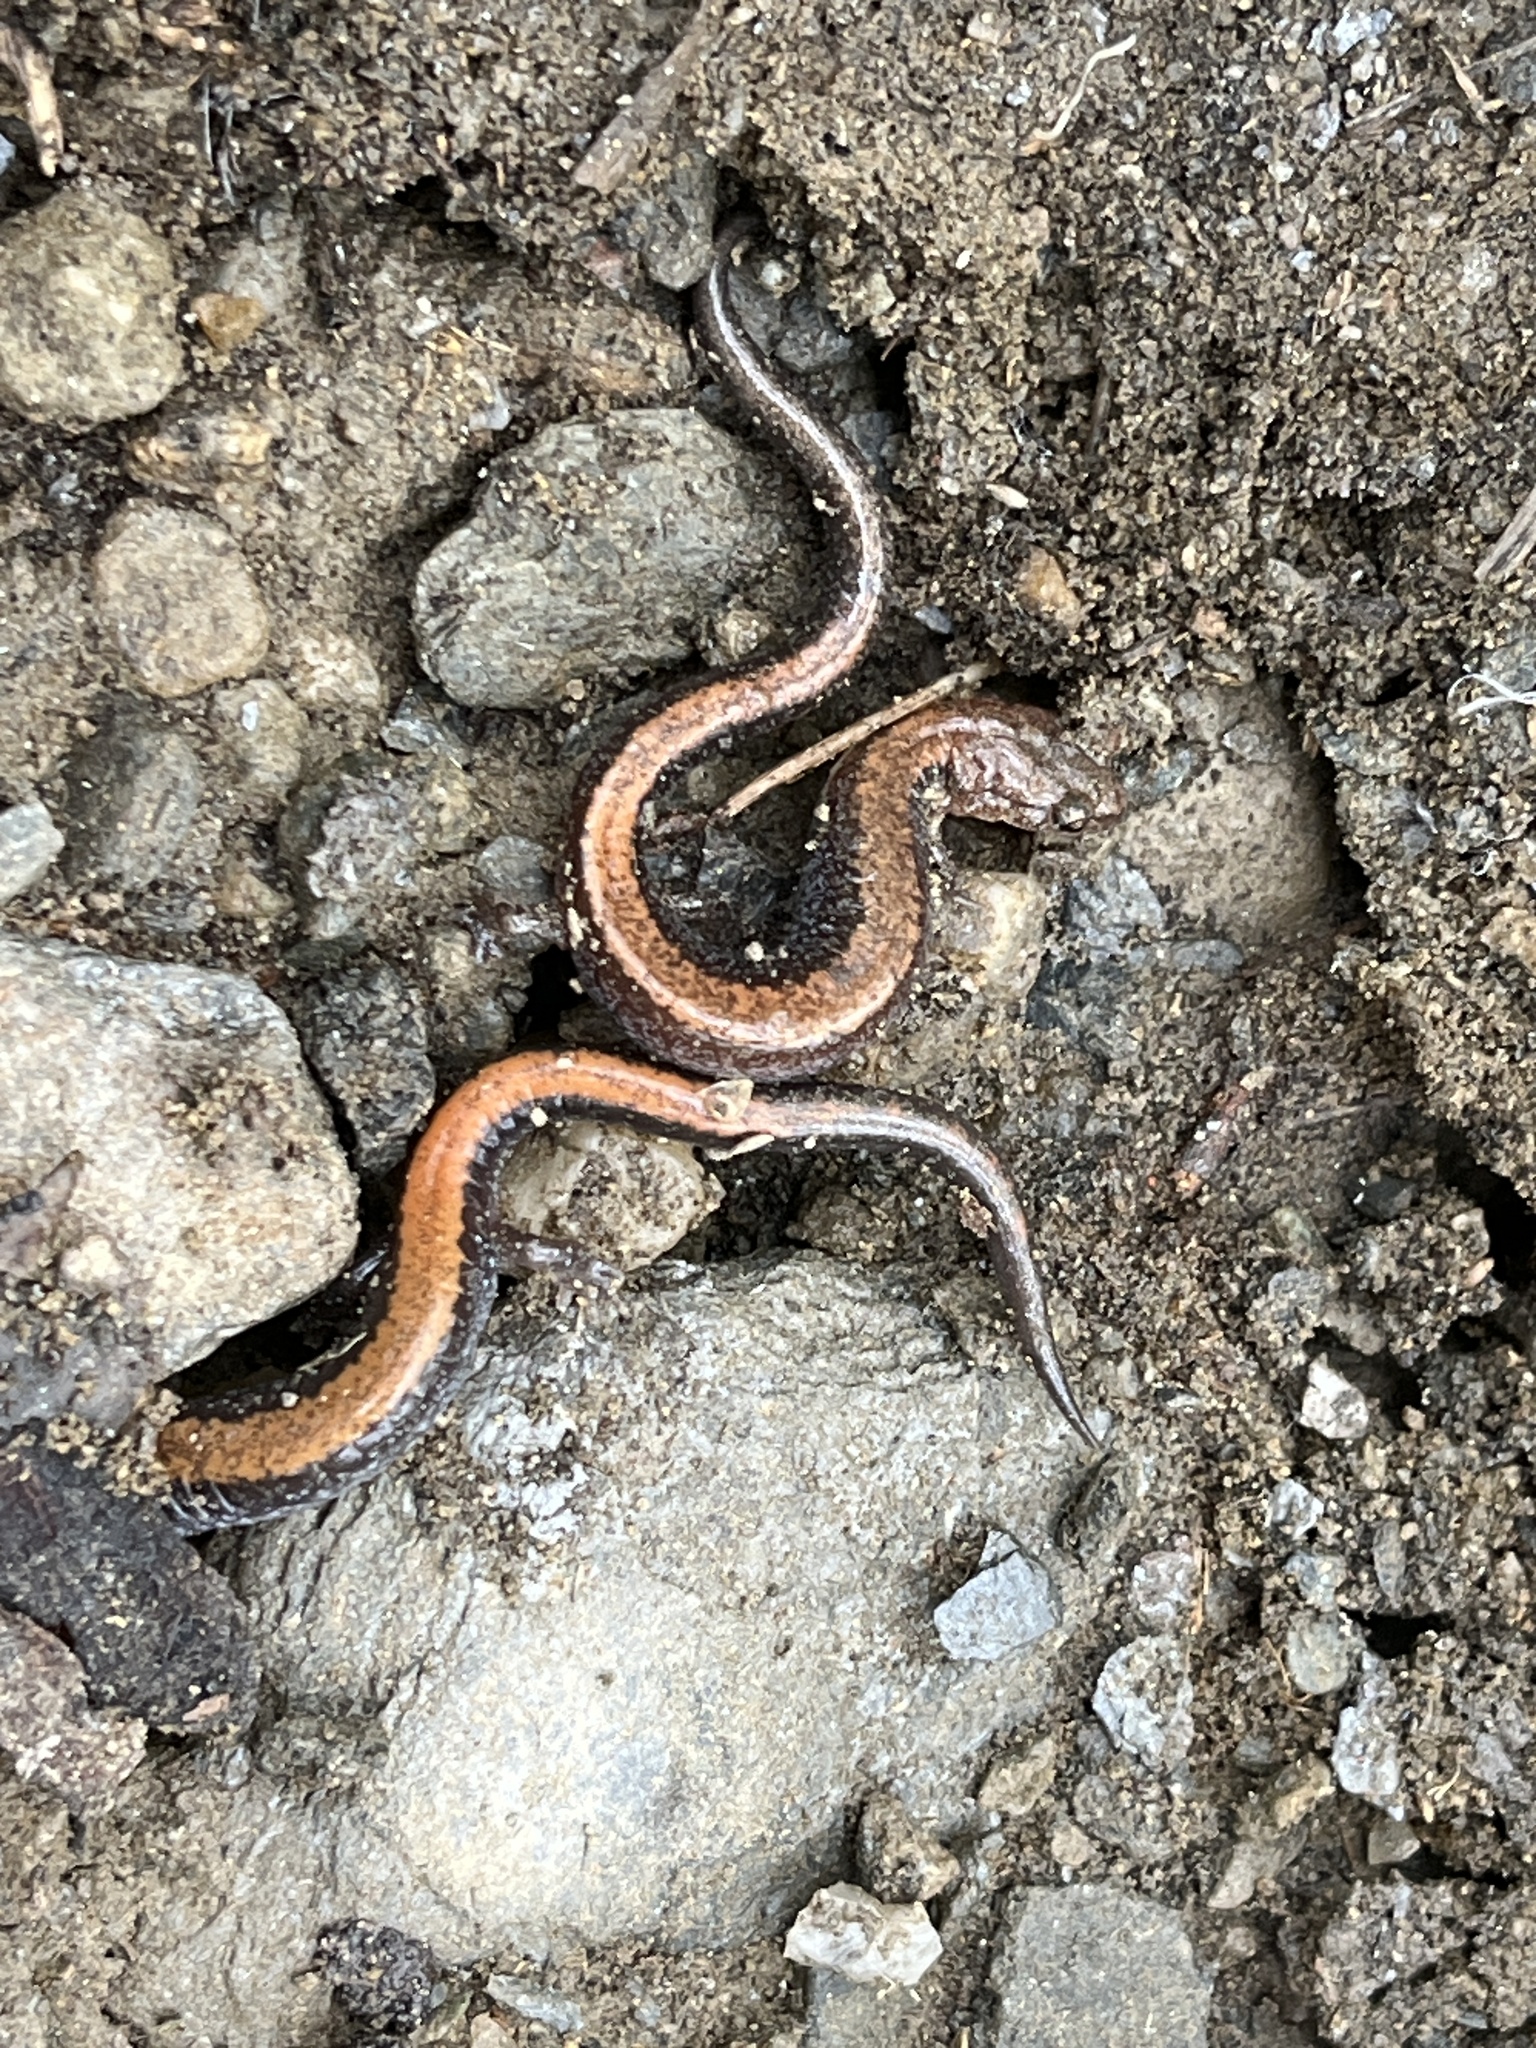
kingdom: Animalia
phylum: Chordata
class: Amphibia
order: Caudata
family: Plethodontidae
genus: Plethodon
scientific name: Plethodon cinereus
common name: Redback salamander
